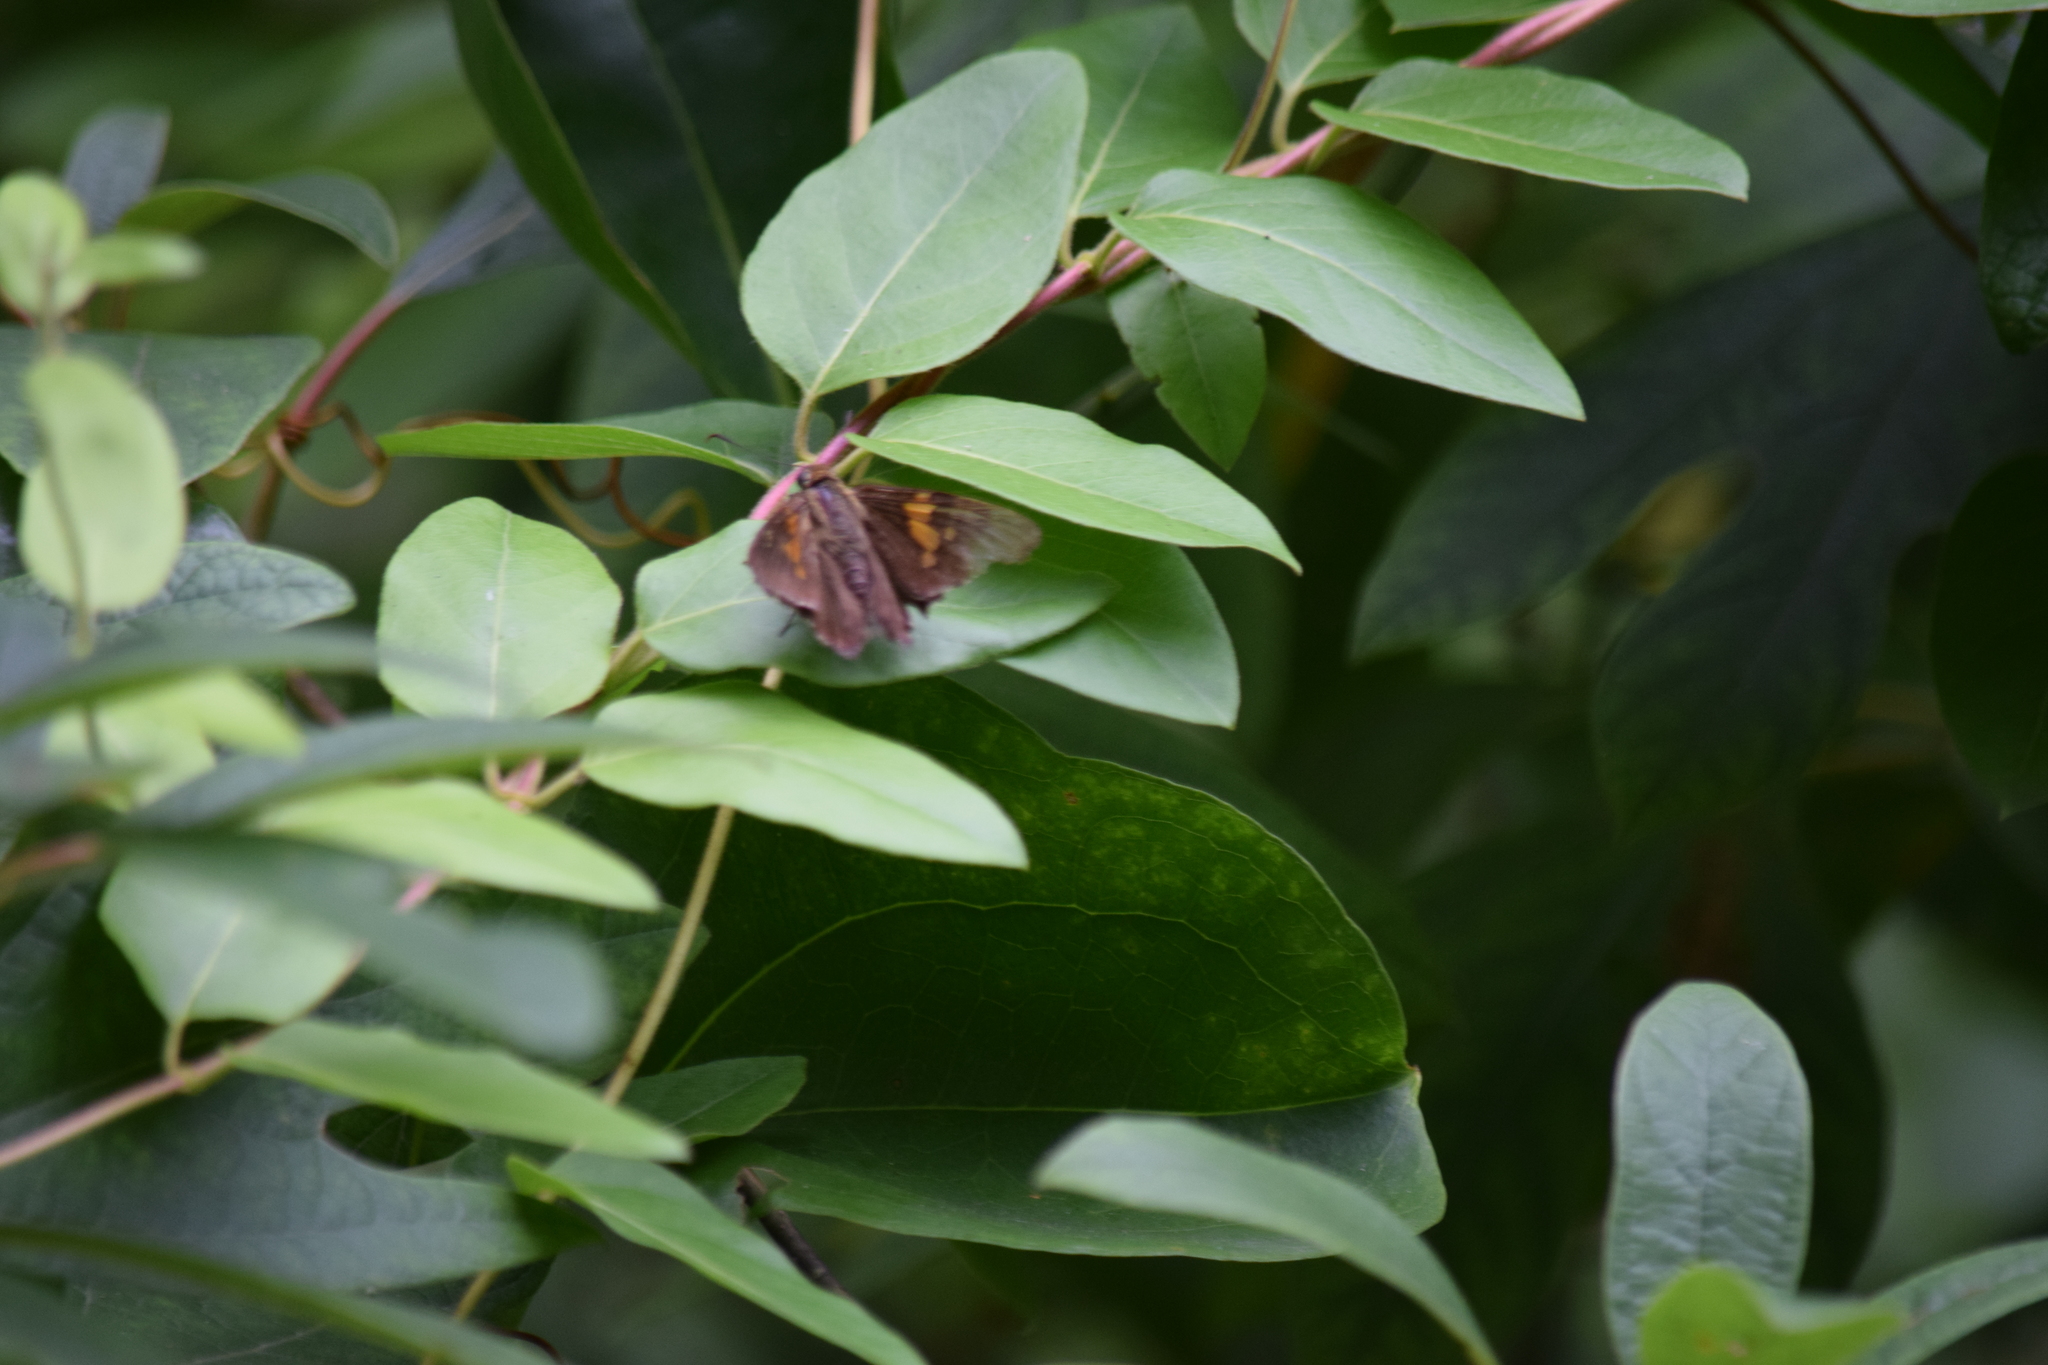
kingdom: Animalia
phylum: Arthropoda
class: Insecta
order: Lepidoptera
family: Hesperiidae
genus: Epargyreus
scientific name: Epargyreus clarus
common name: Silver-spotted skipper
